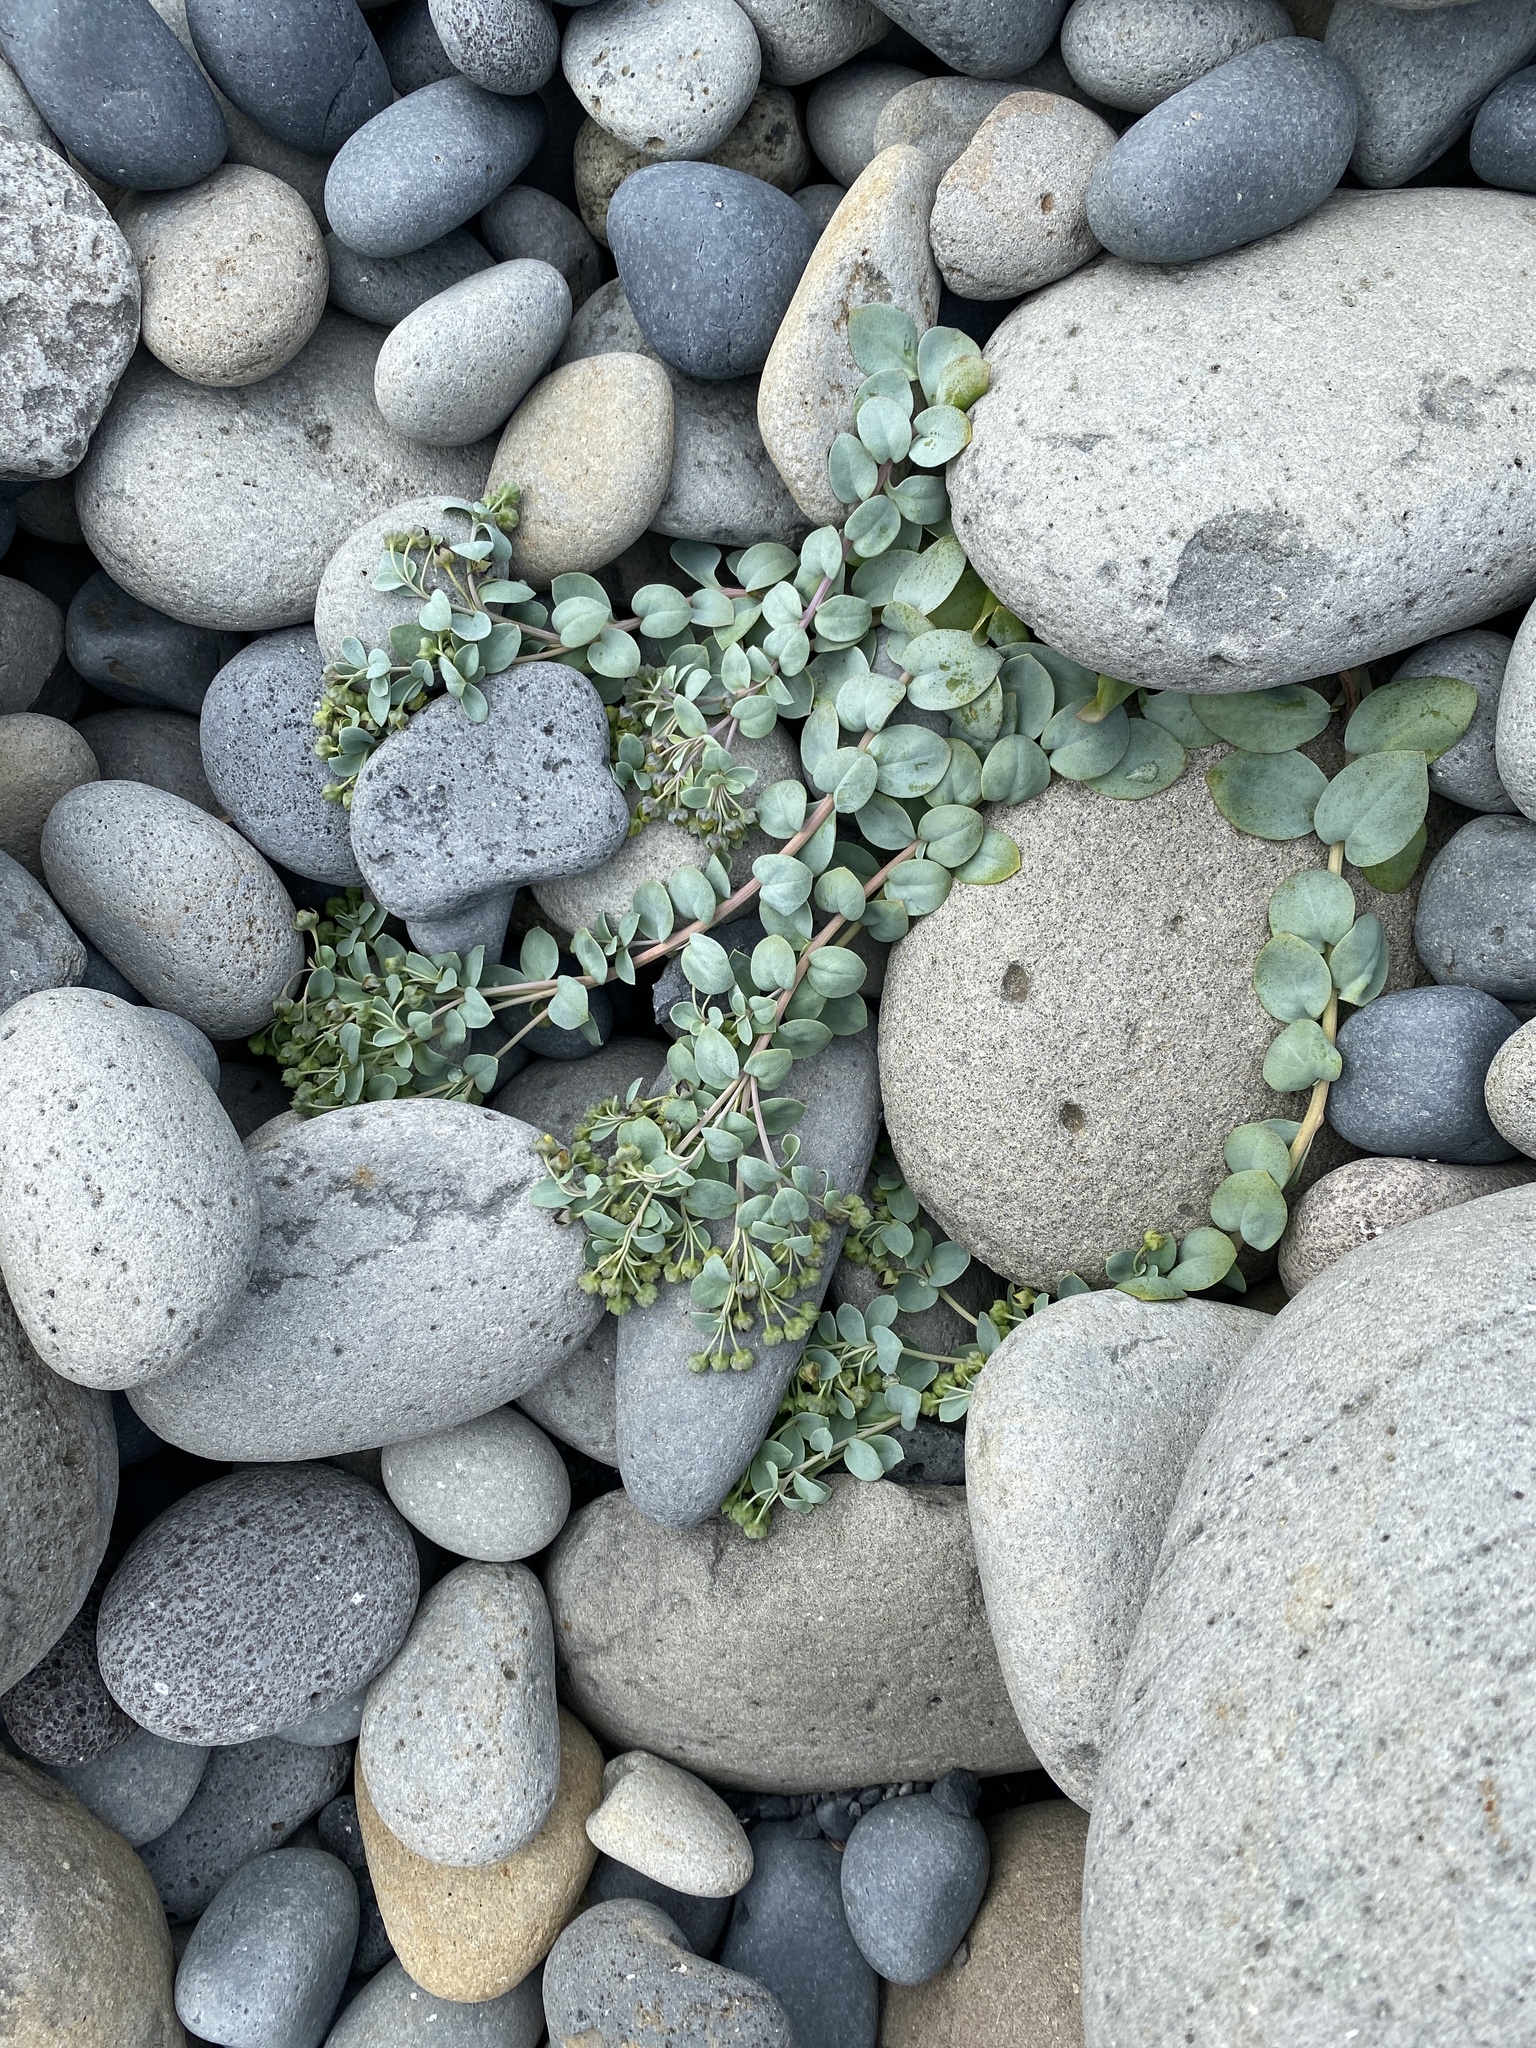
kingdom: Plantae
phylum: Tracheophyta
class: Magnoliopsida
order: Boraginales
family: Boraginaceae
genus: Mertensia
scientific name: Mertensia maritima
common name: Oysterplant
